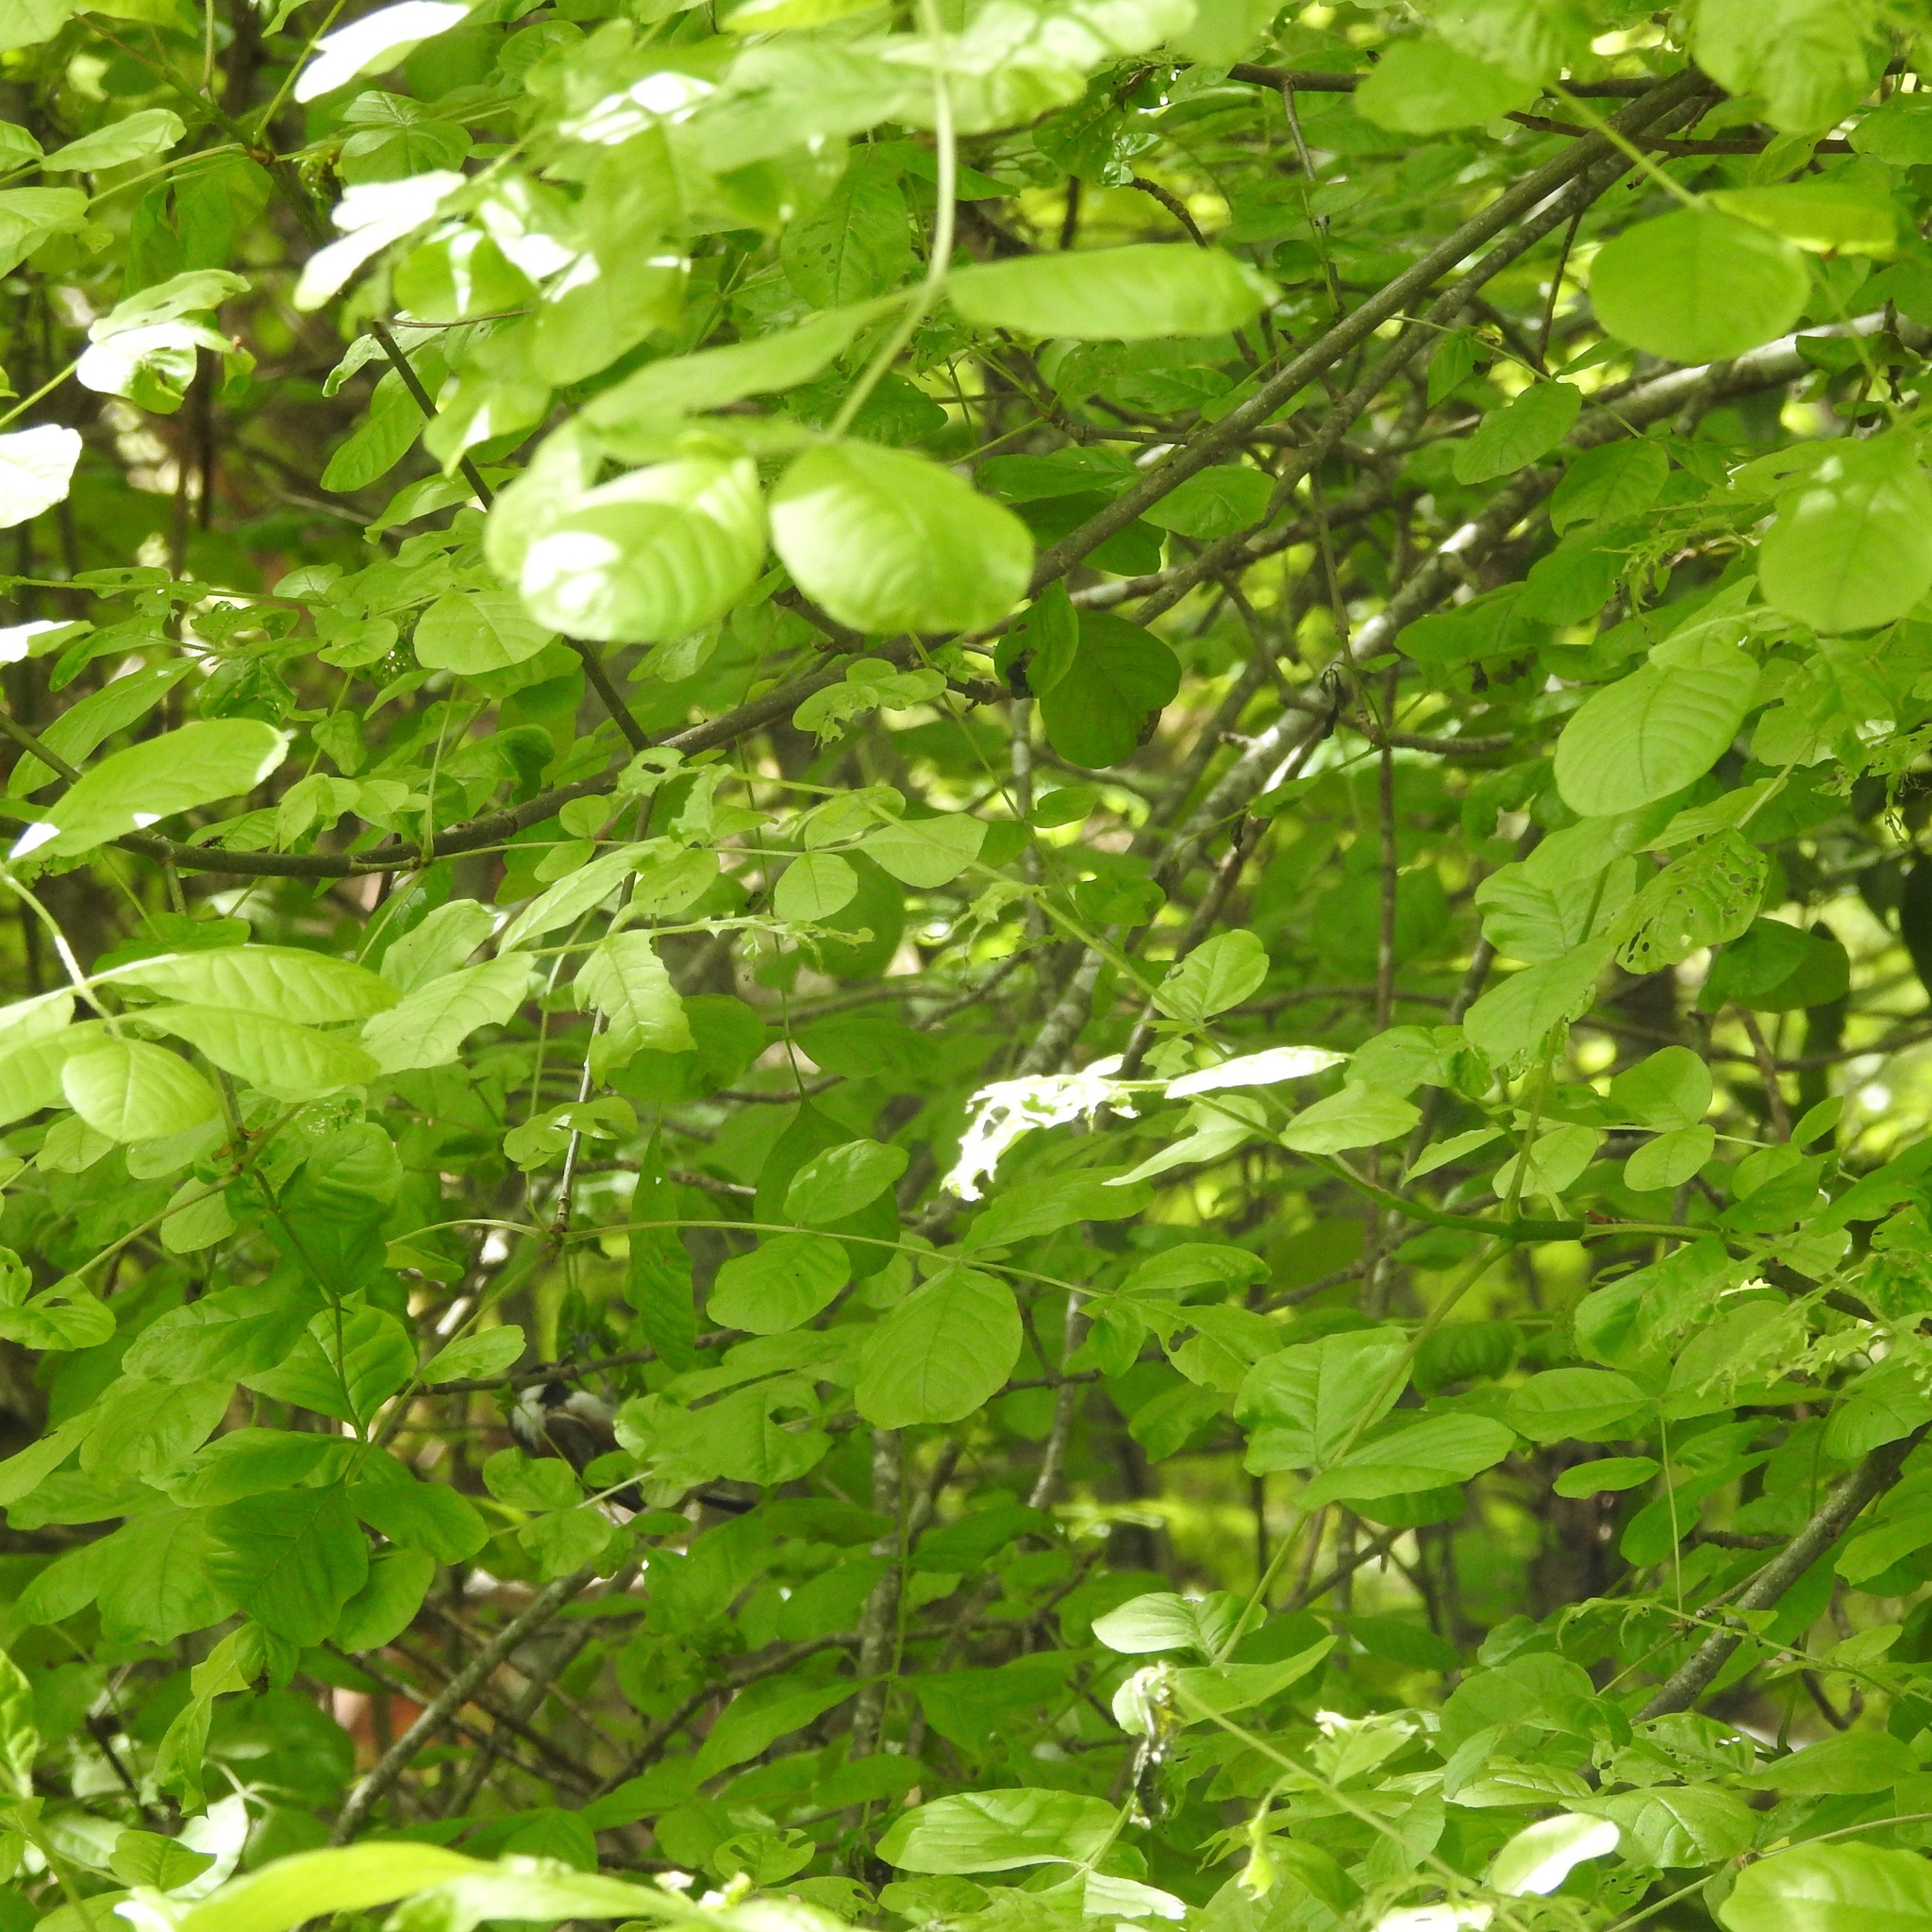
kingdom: Plantae
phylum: Tracheophyta
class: Magnoliopsida
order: Lamiales
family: Oleaceae
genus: Fraxinus
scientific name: Fraxinus latifolia
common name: Oregon ash
